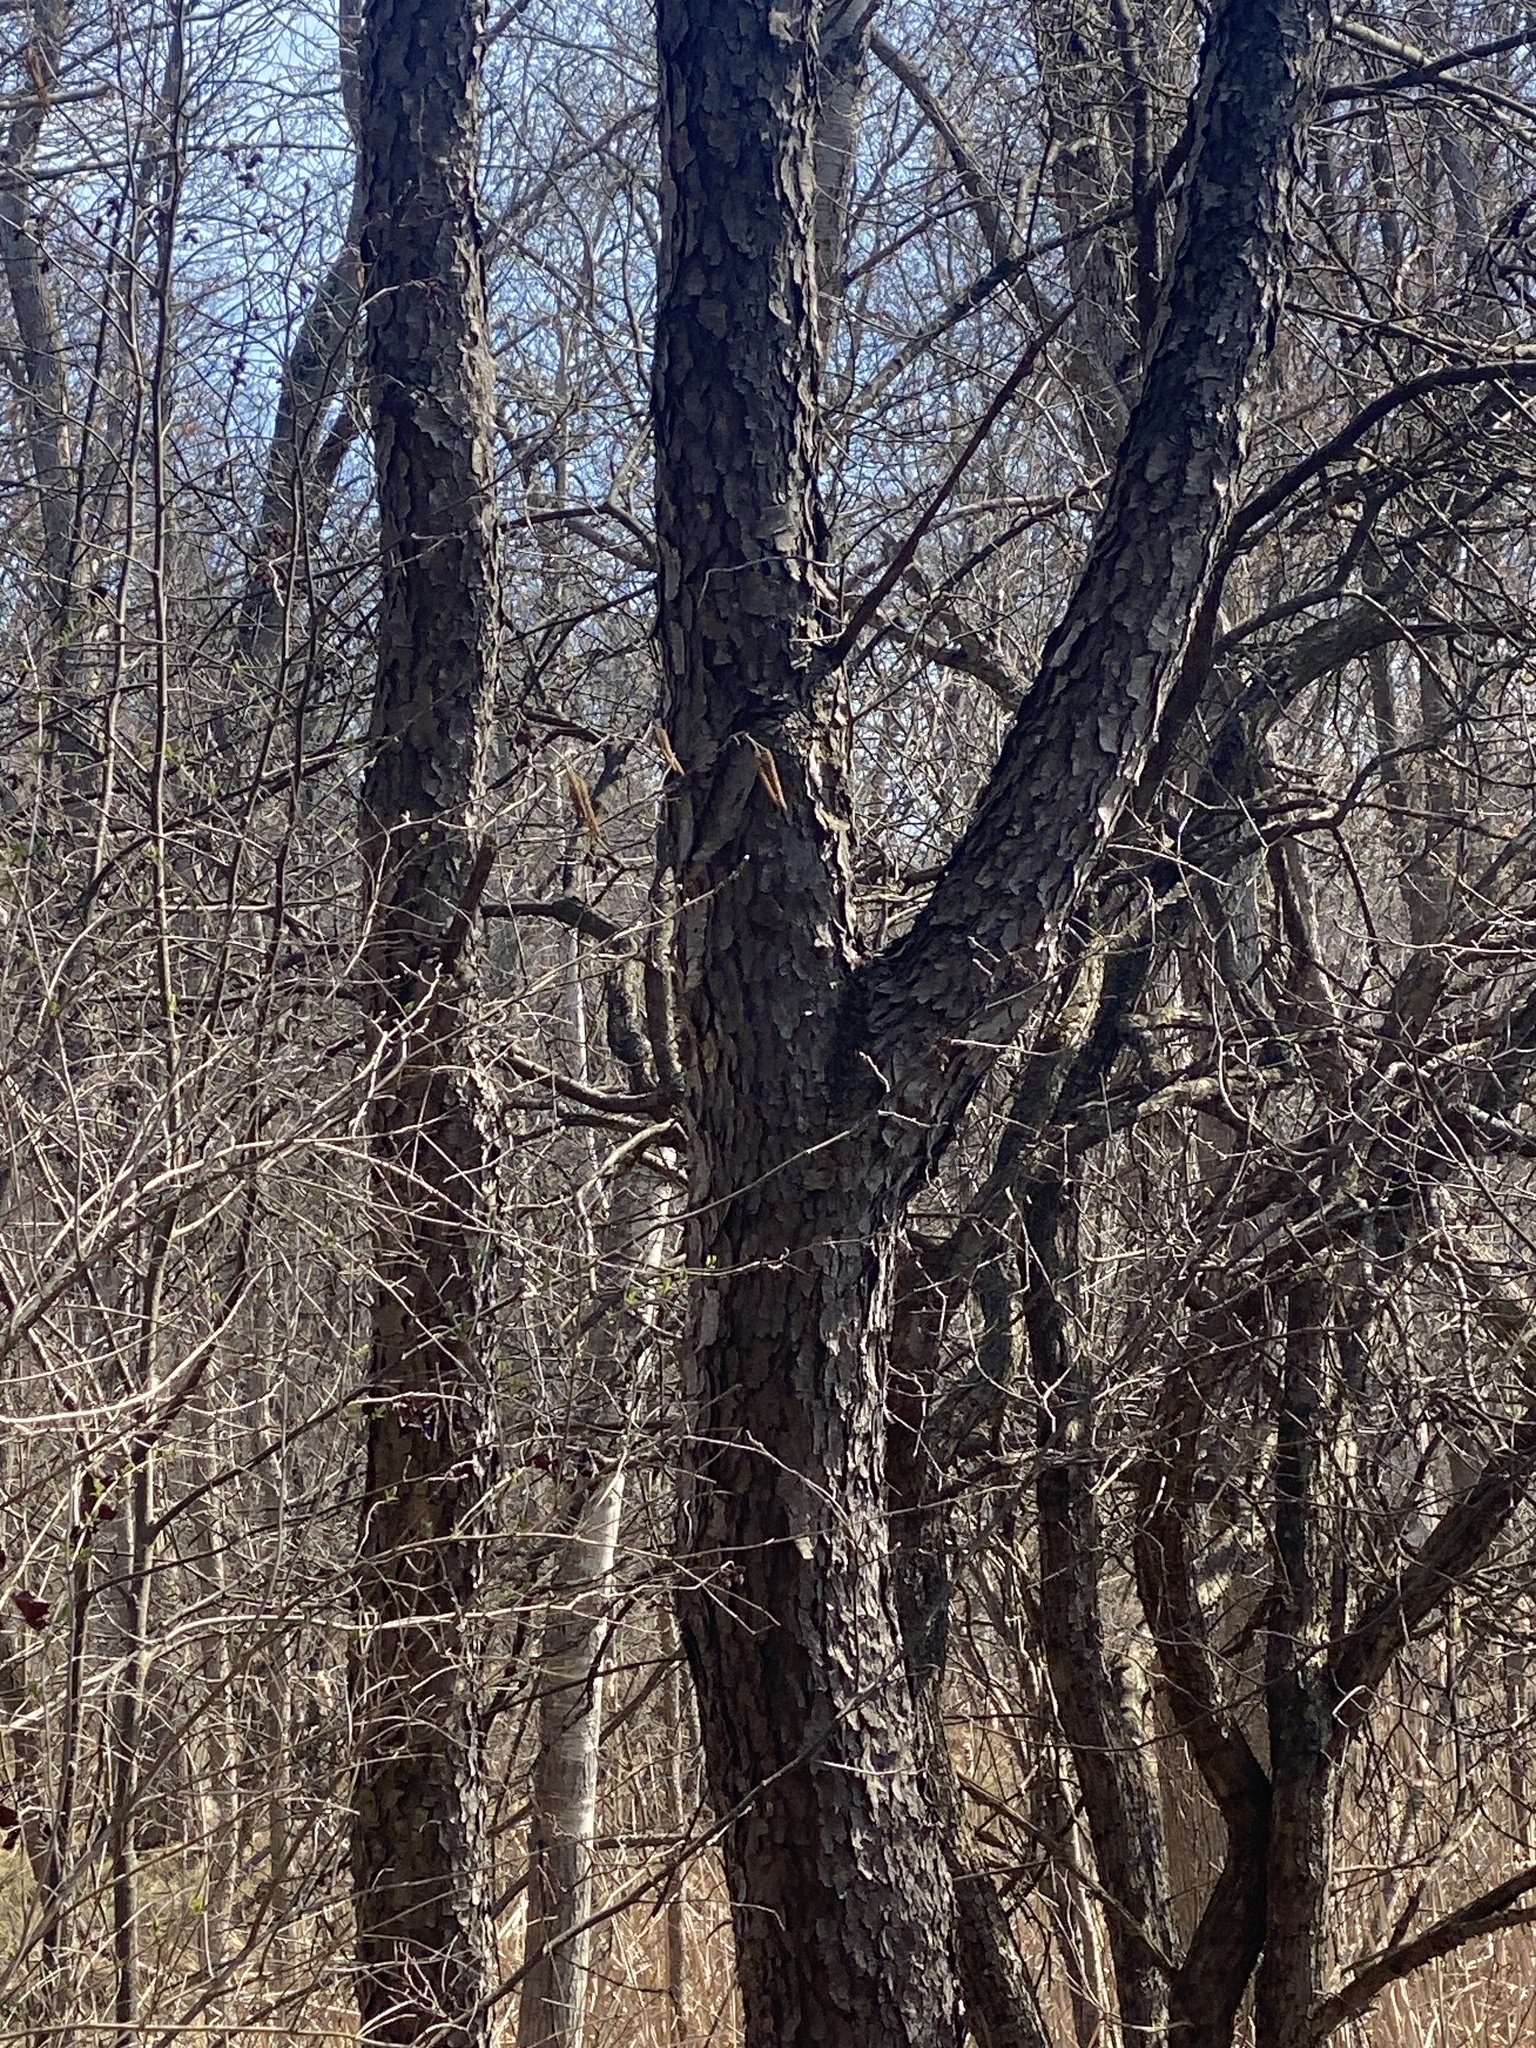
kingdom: Plantae
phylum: Tracheophyta
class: Magnoliopsida
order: Rosales
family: Rosaceae
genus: Prunus
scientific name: Prunus serotina
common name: Black cherry
